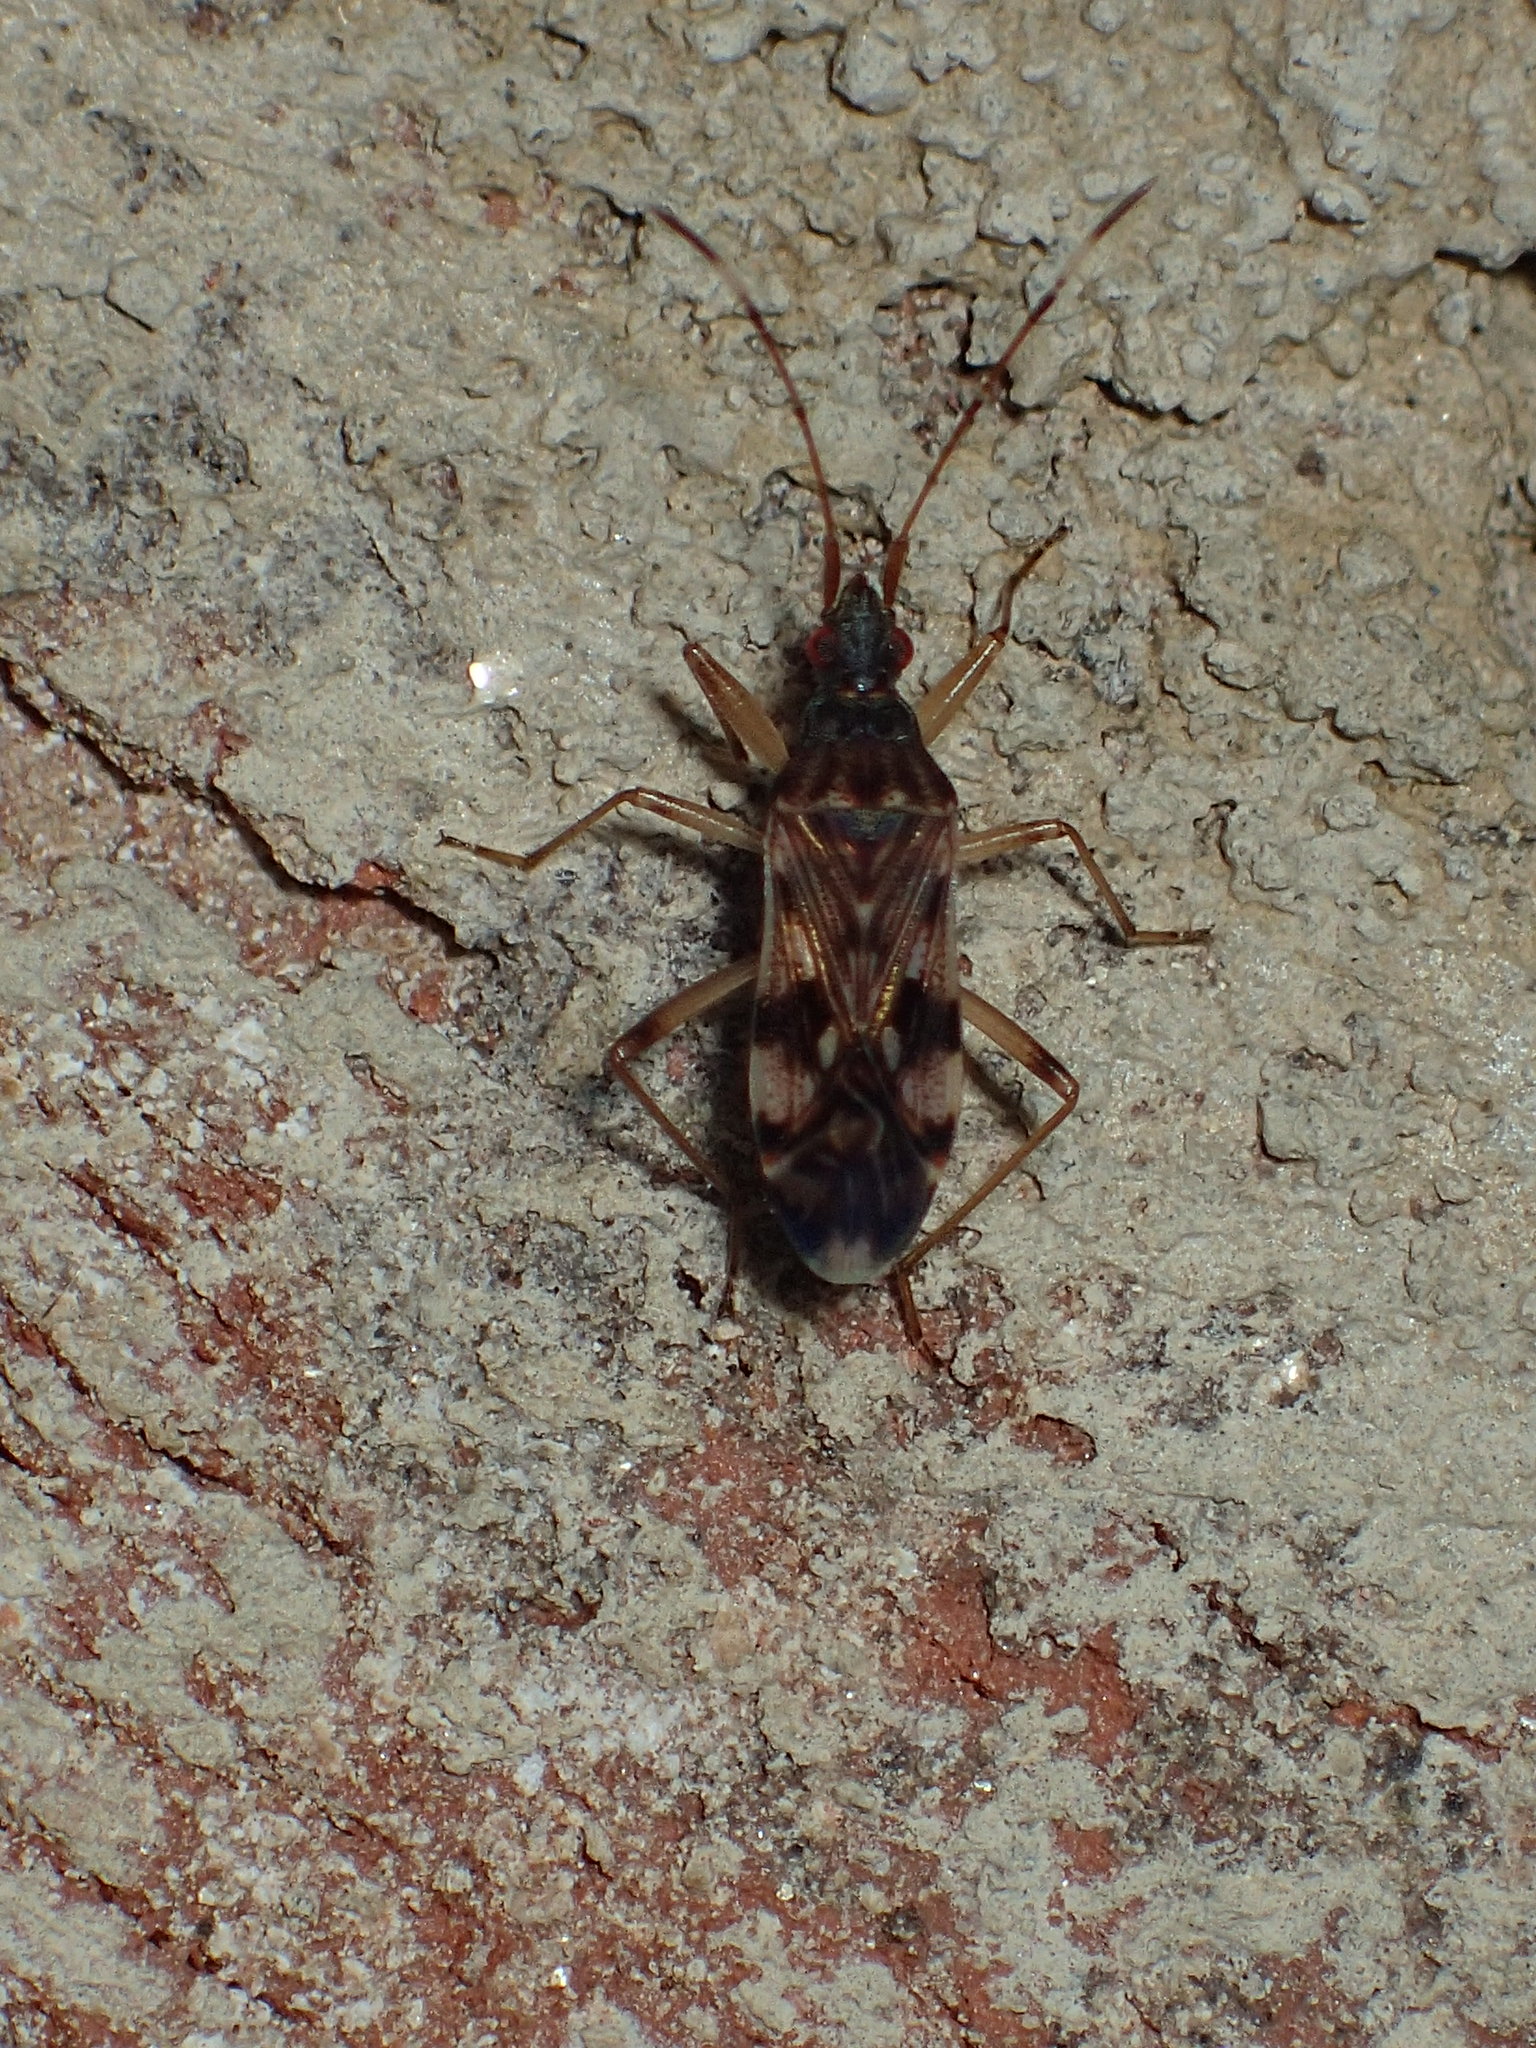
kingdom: Animalia
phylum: Arthropoda
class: Insecta
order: Hemiptera
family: Rhyparochromidae
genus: Ozophora
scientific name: Ozophora picturata
